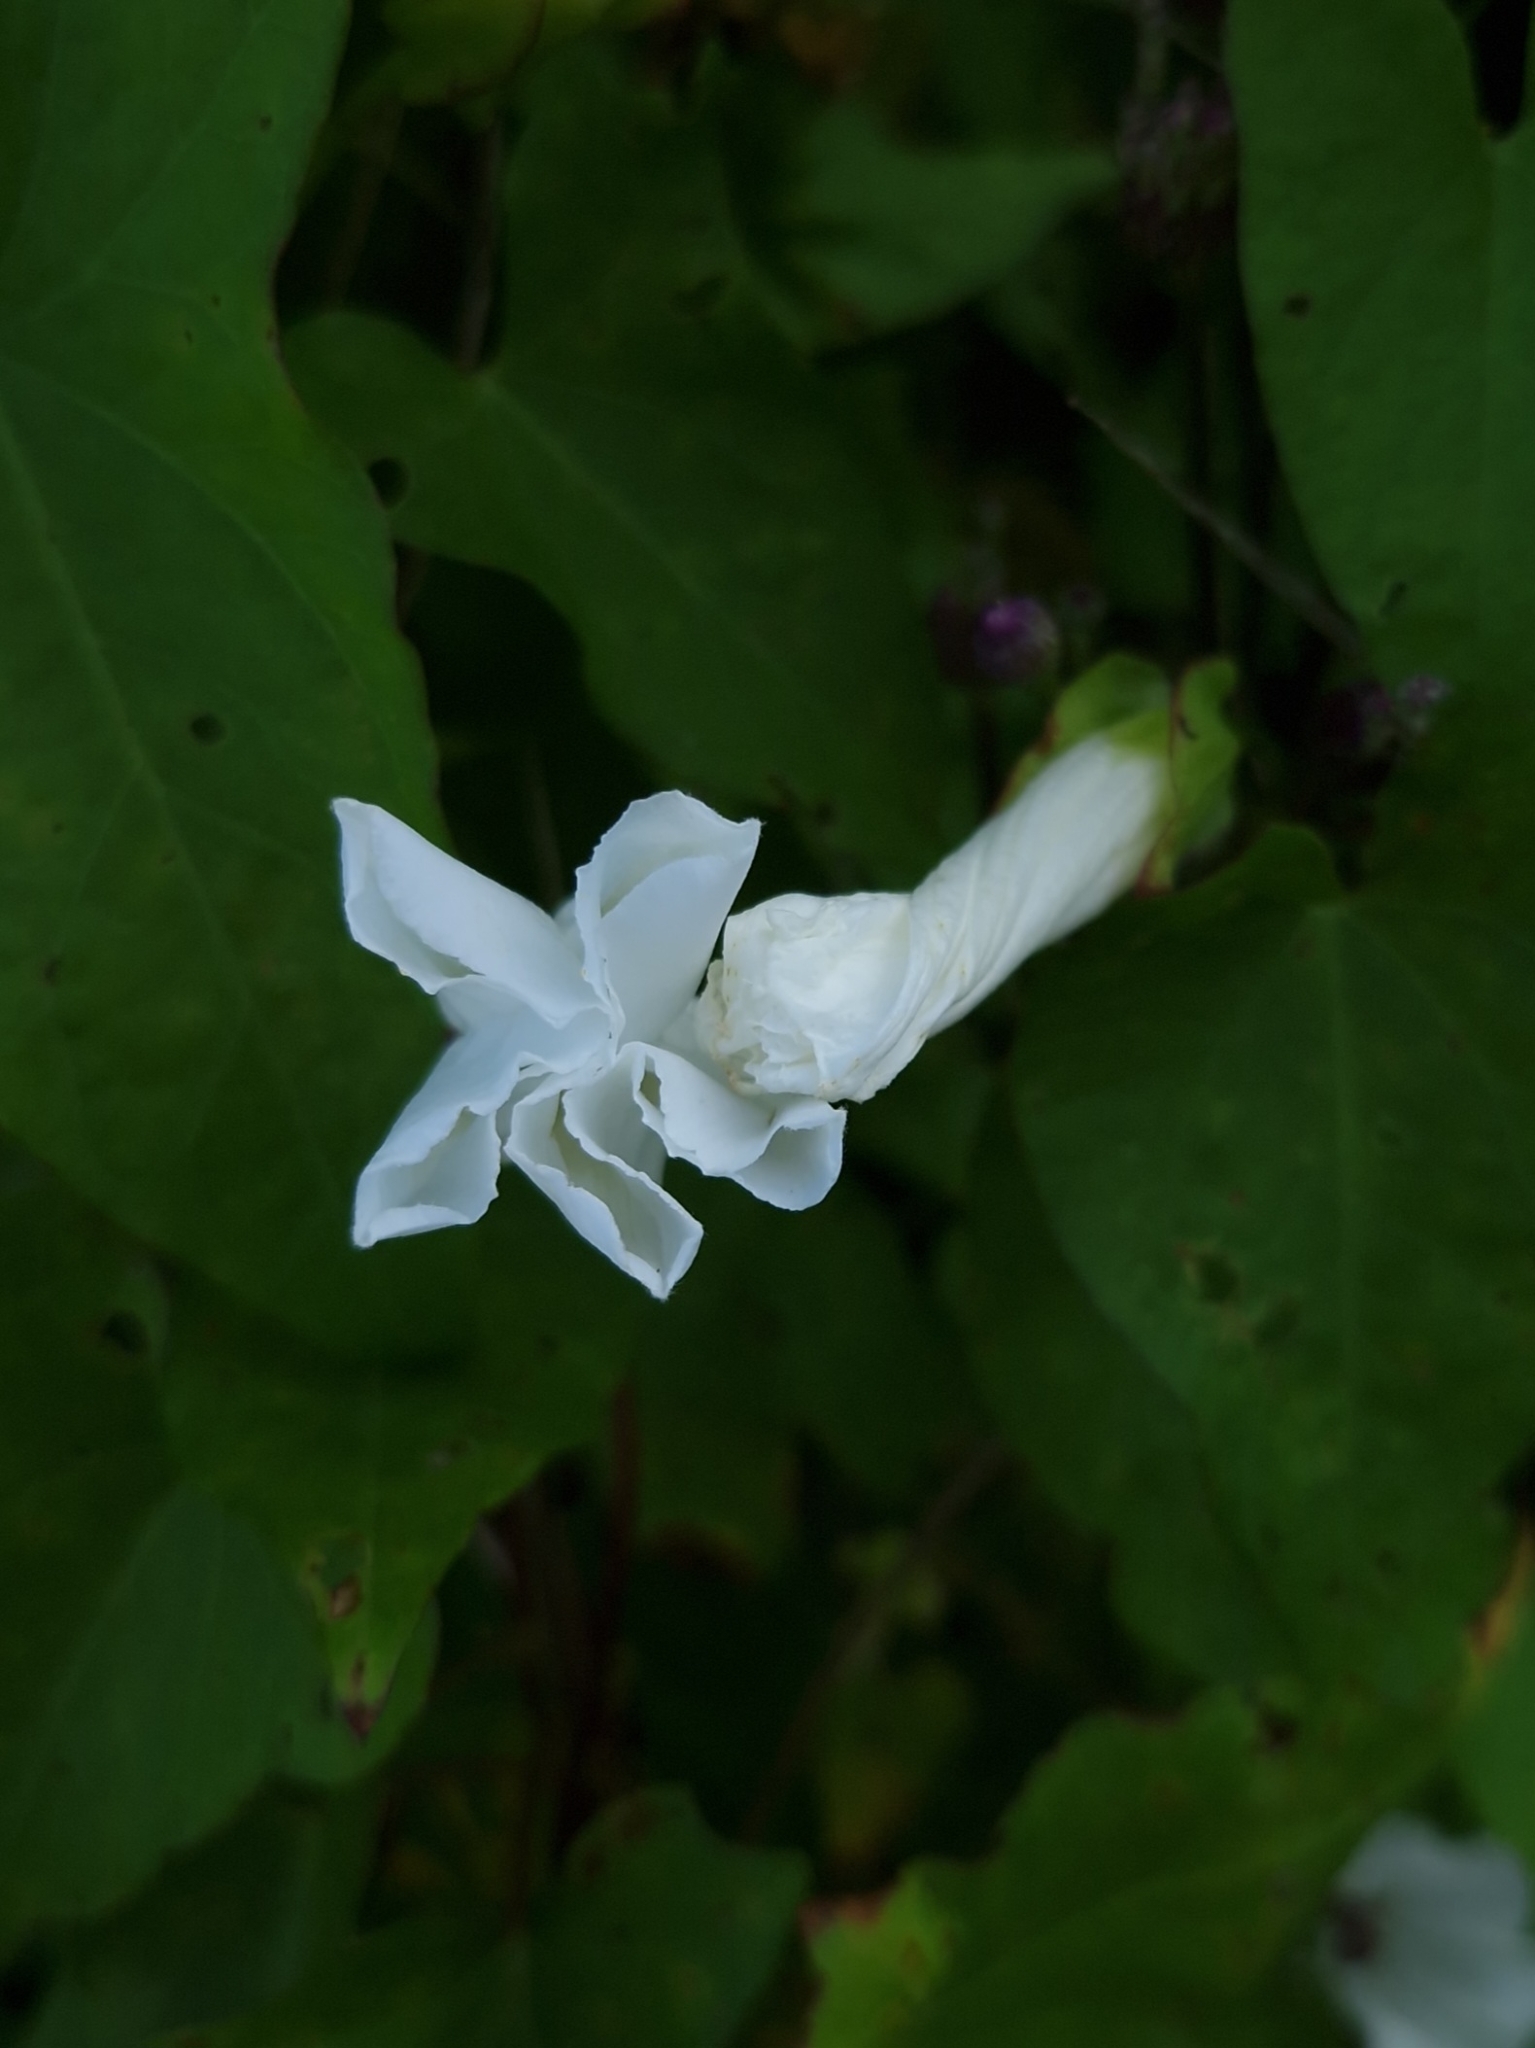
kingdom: Plantae
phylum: Tracheophyta
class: Magnoliopsida
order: Solanales
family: Convolvulaceae
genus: Calystegia
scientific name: Calystegia sepium
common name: Hedge bindweed
